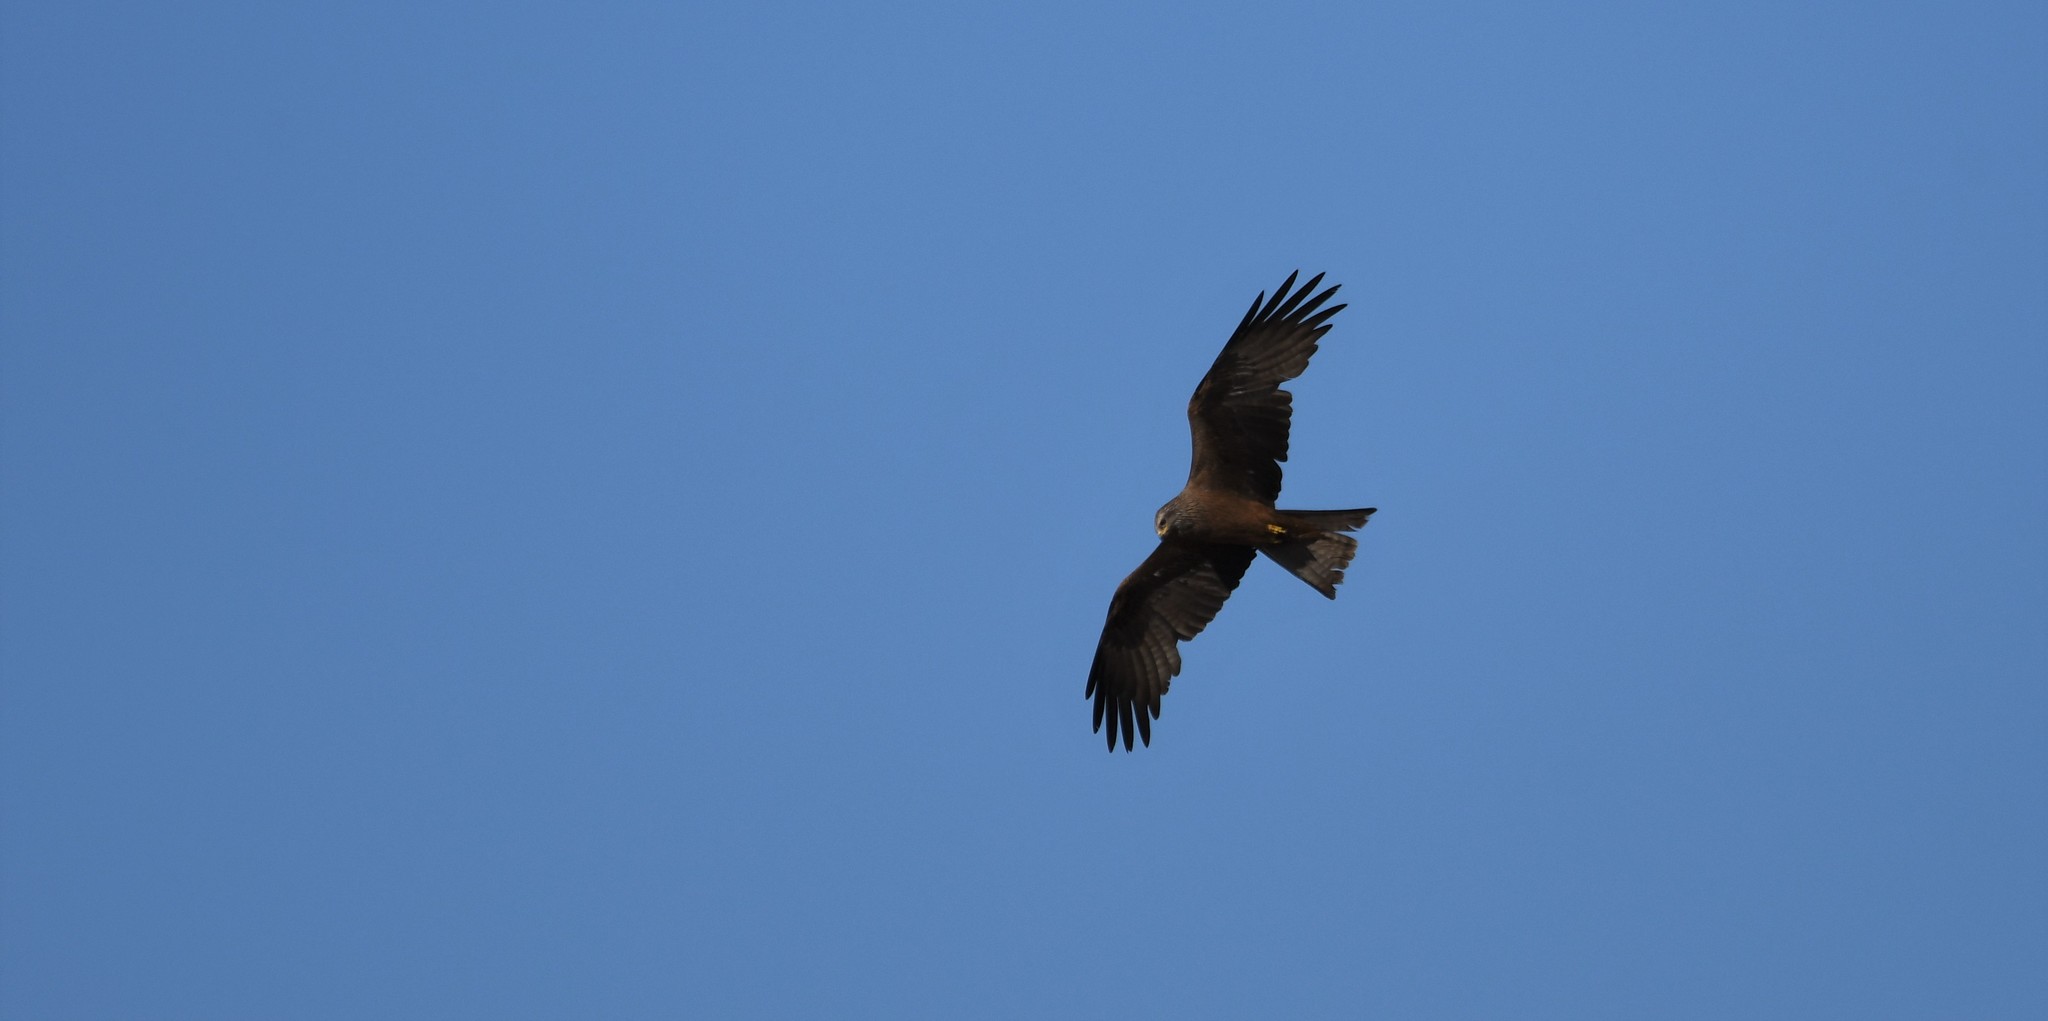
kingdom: Animalia
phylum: Chordata
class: Aves
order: Accipitriformes
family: Accipitridae
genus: Milvus
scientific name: Milvus migrans
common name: Black kite
